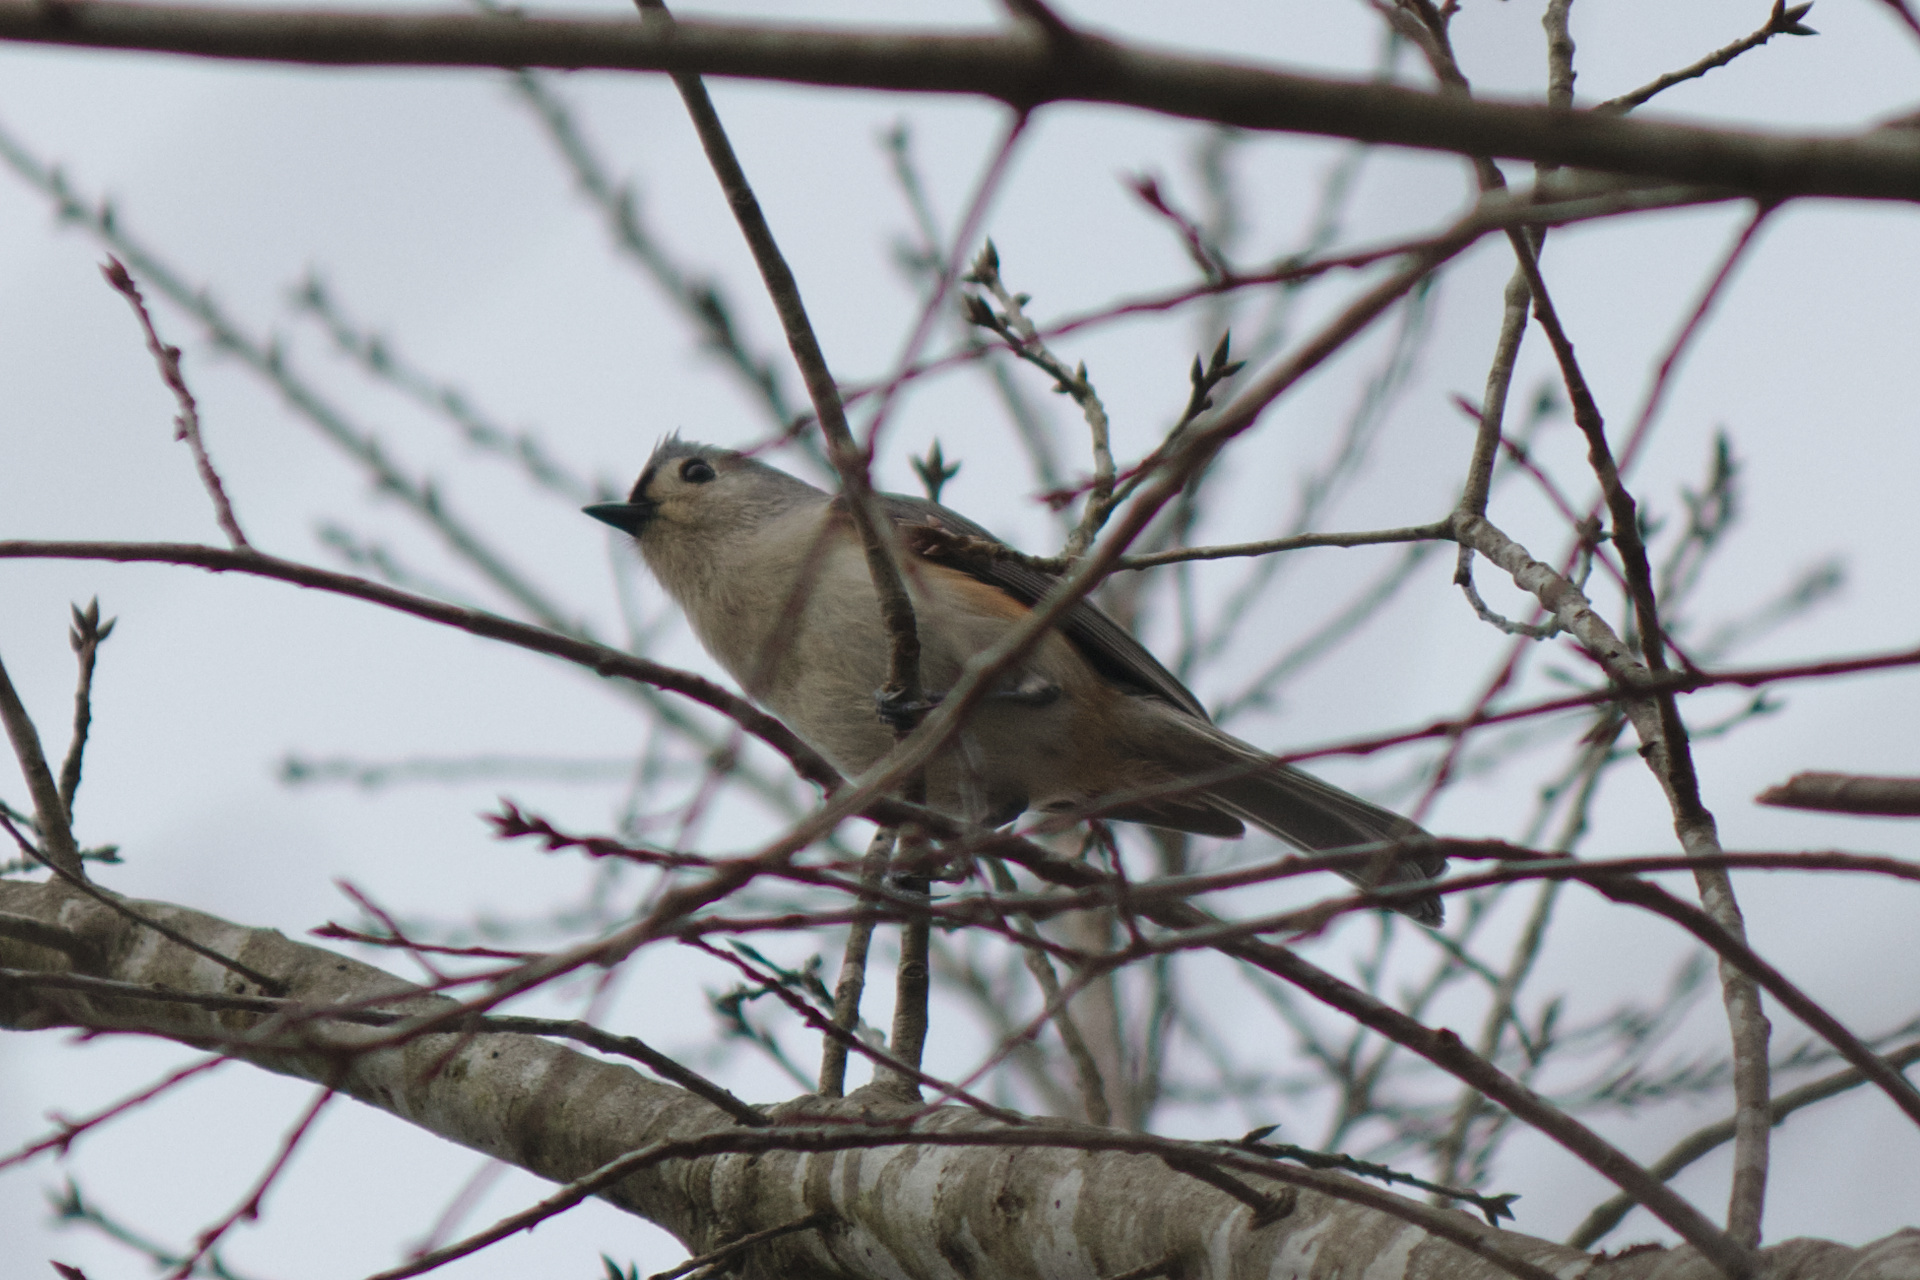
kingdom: Animalia
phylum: Chordata
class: Aves
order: Passeriformes
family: Paridae
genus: Baeolophus
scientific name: Baeolophus bicolor
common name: Tufted titmouse
